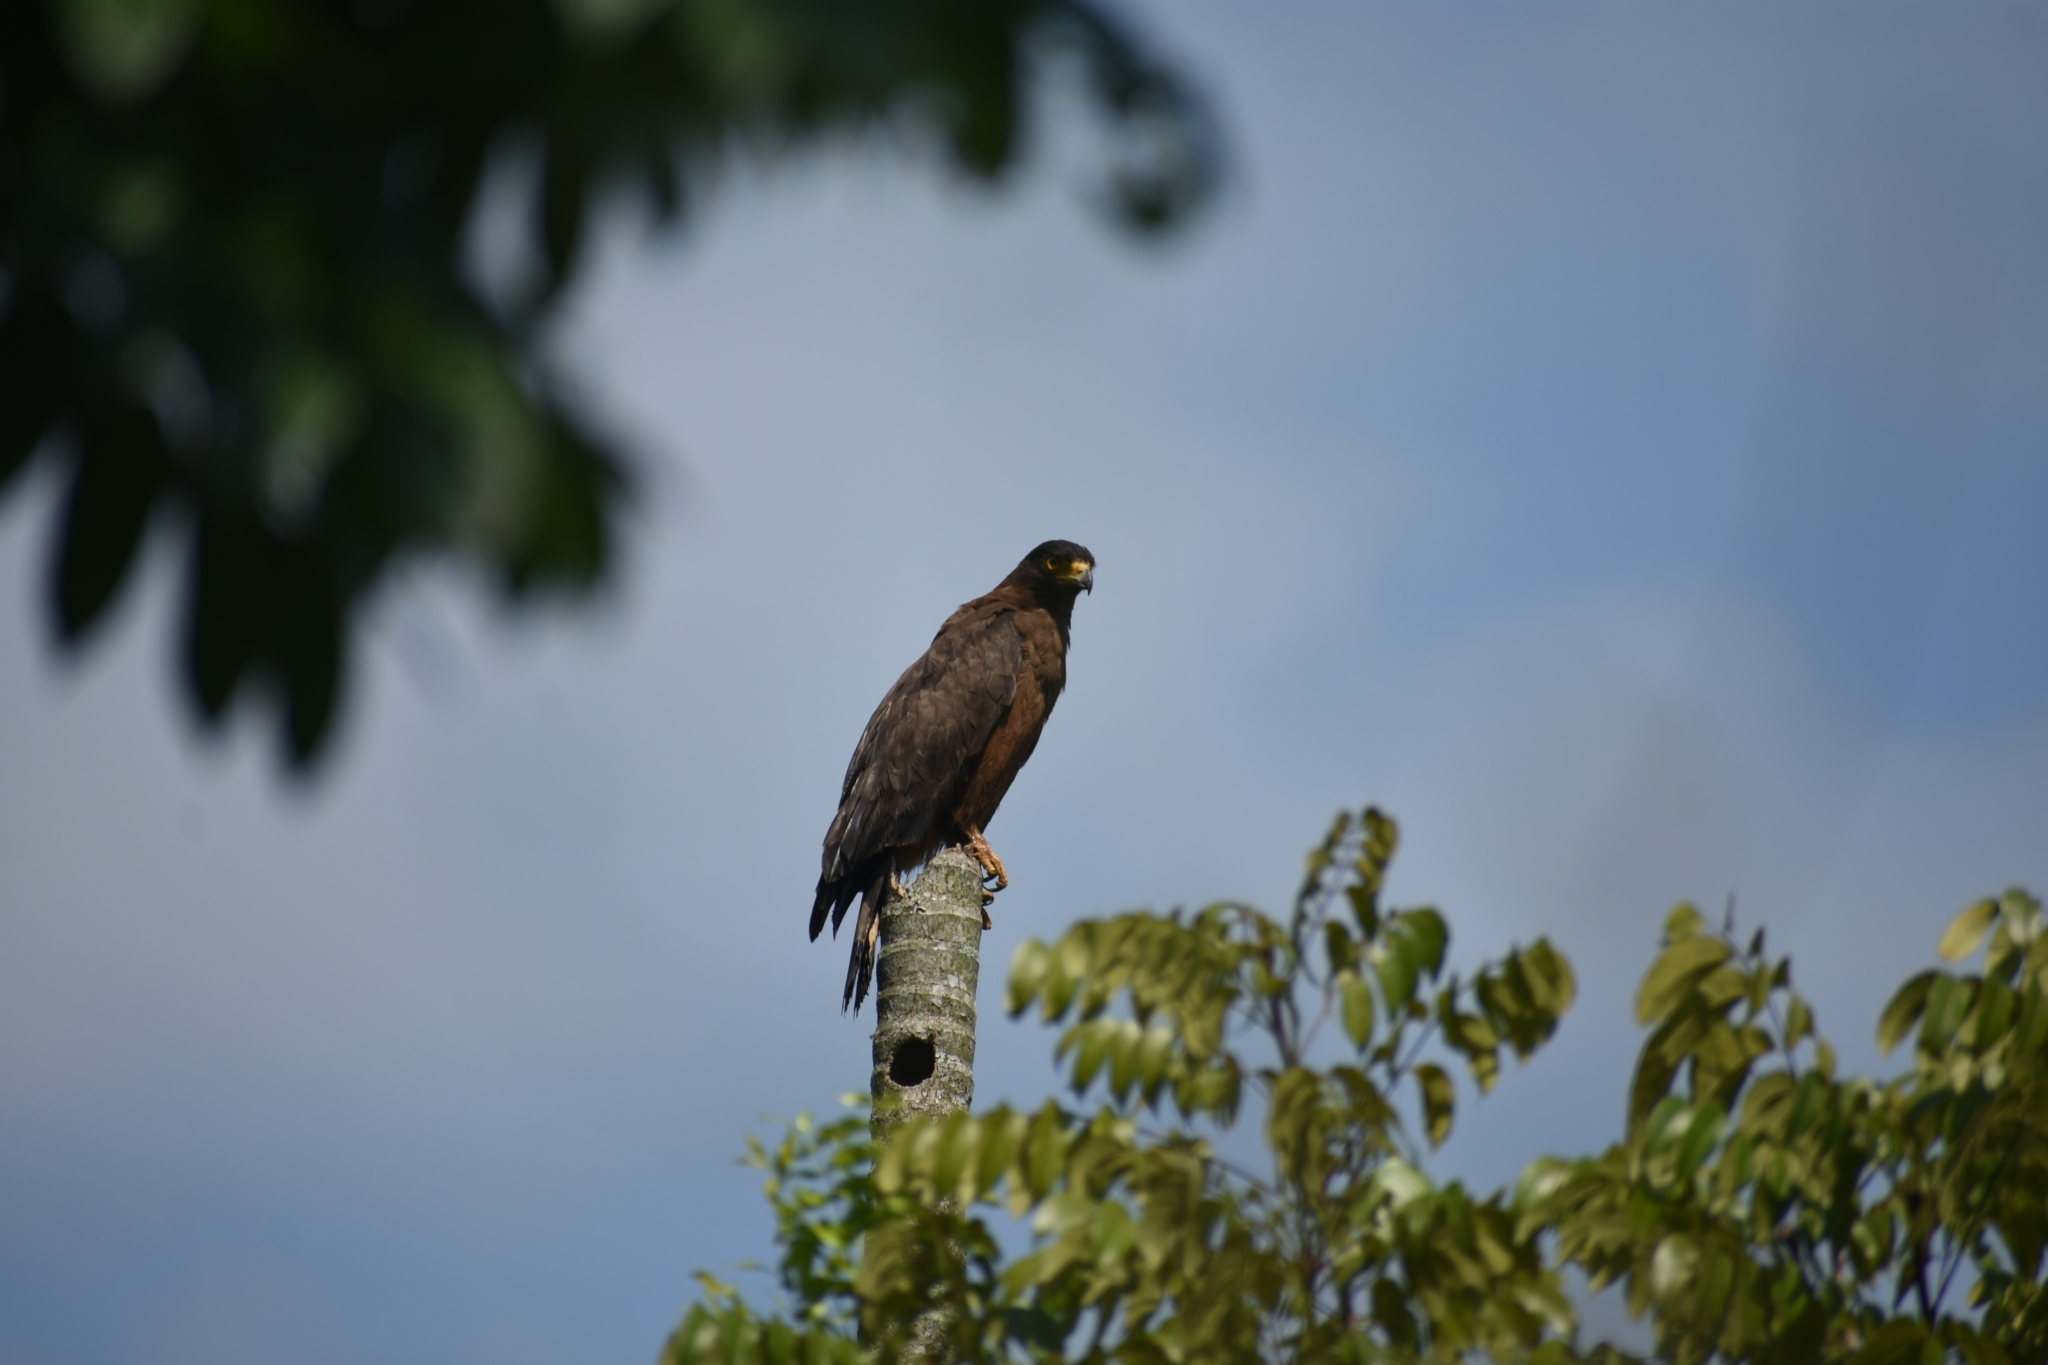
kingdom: Animalia
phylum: Chordata
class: Aves
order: Accipitriformes
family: Accipitridae
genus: Spilornis
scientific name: Spilornis cheela
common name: Crested serpent eagle
